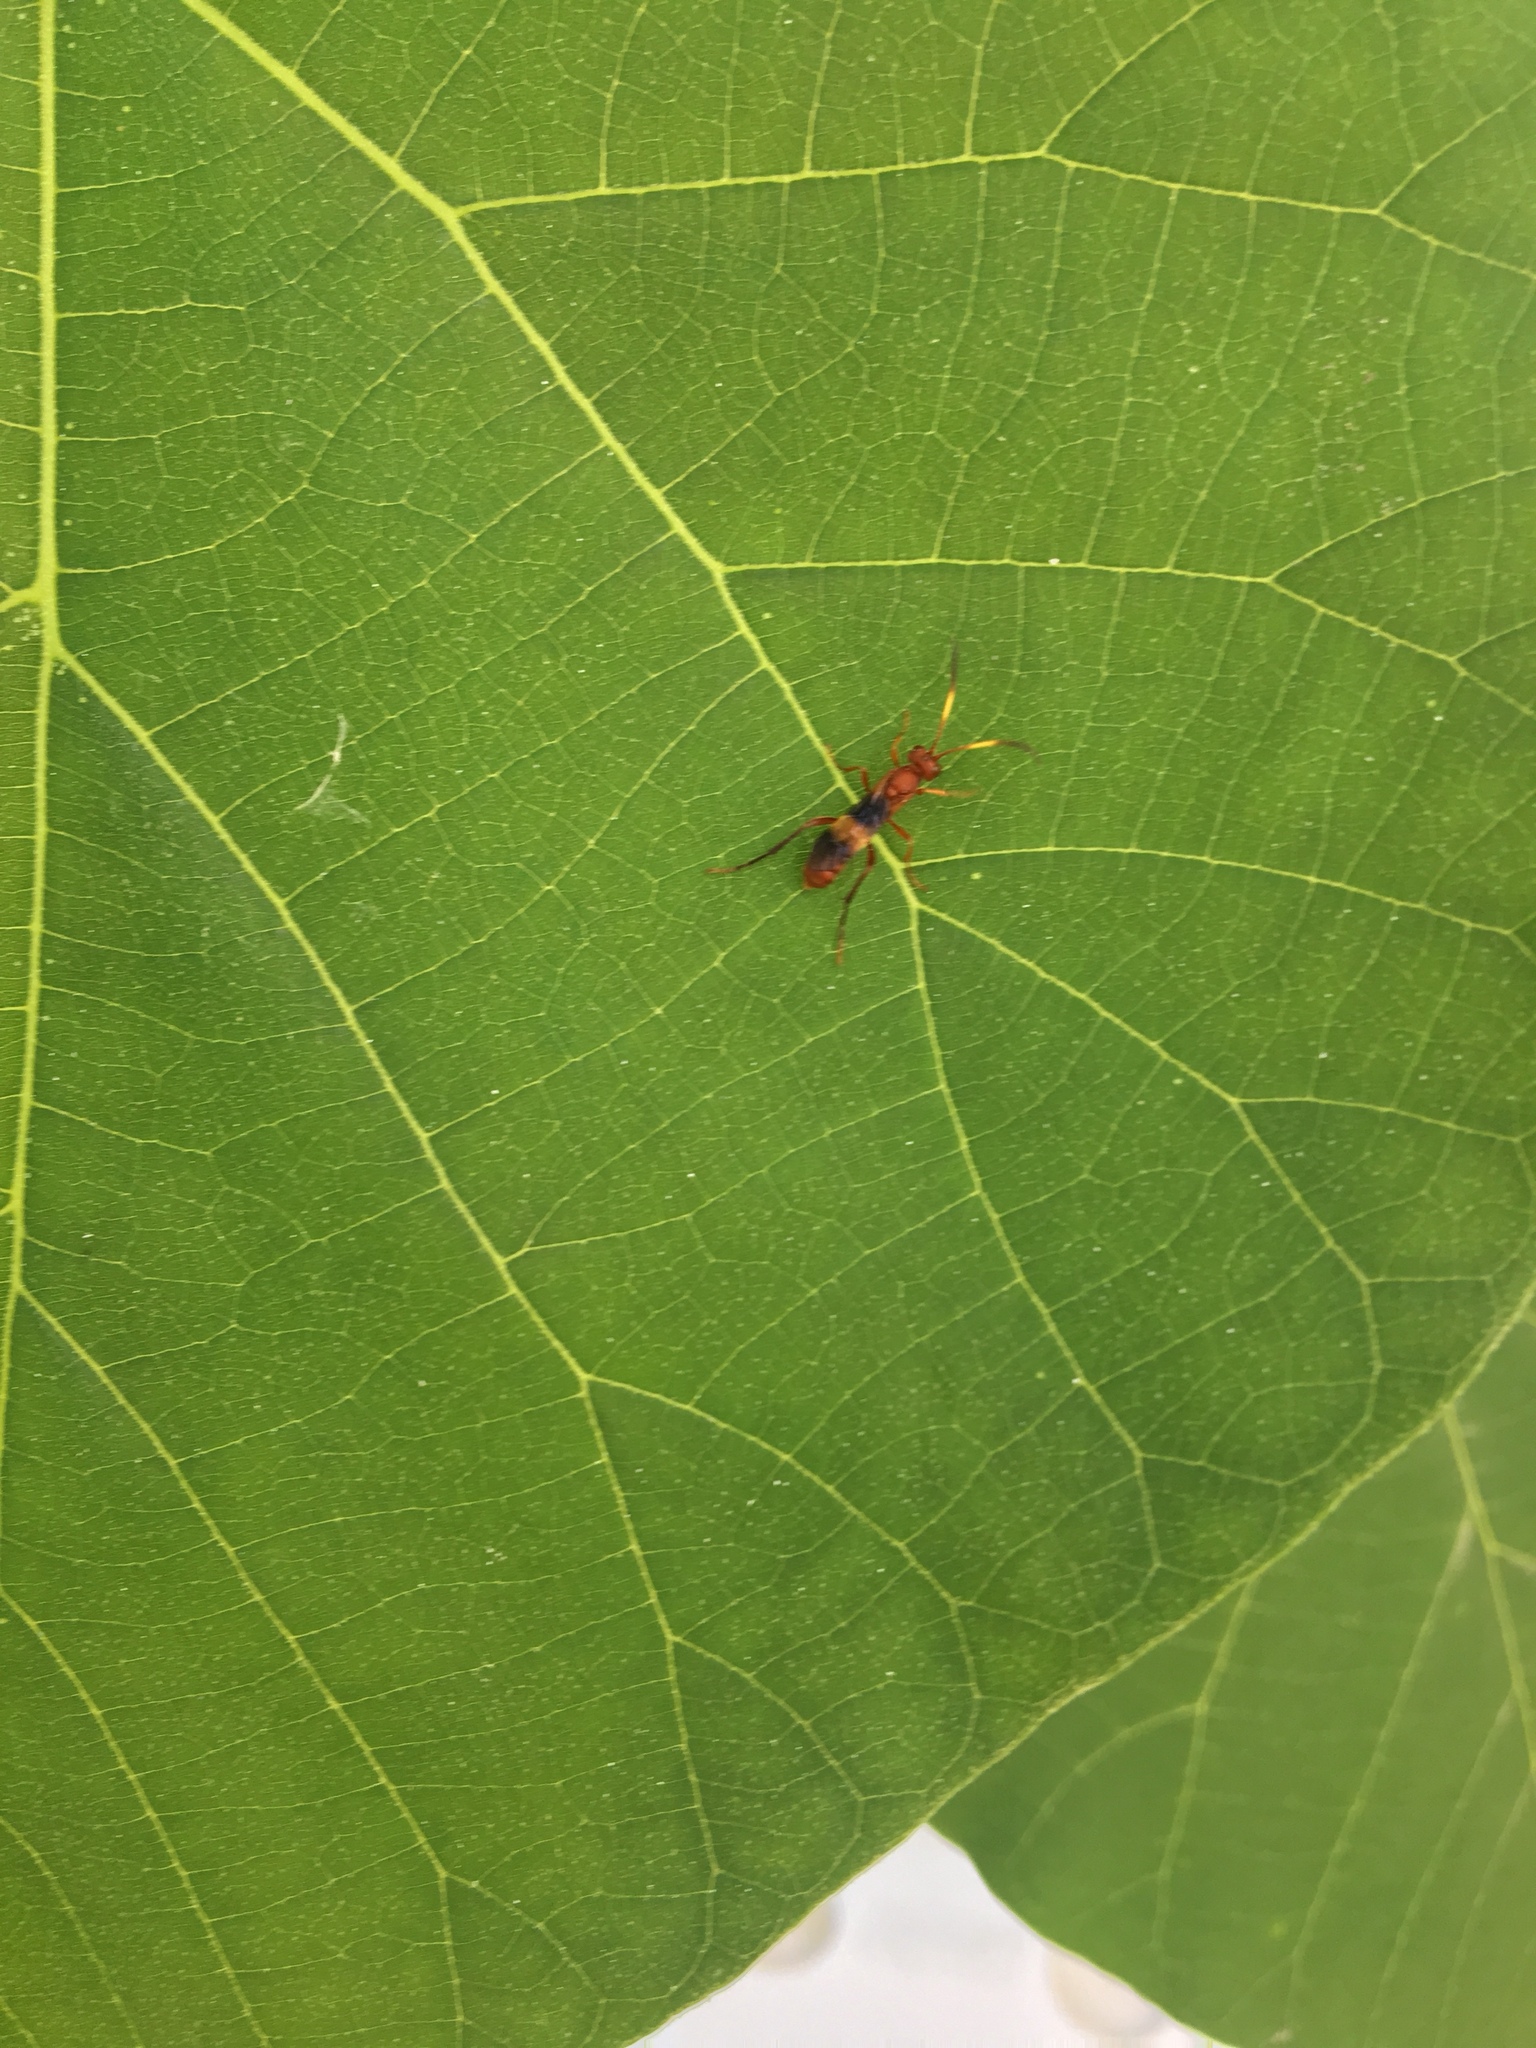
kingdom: Animalia
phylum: Arthropoda
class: Insecta
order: Hymenoptera
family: Ichneumonidae
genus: Trogomorpha
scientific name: Trogomorpha arrogans
